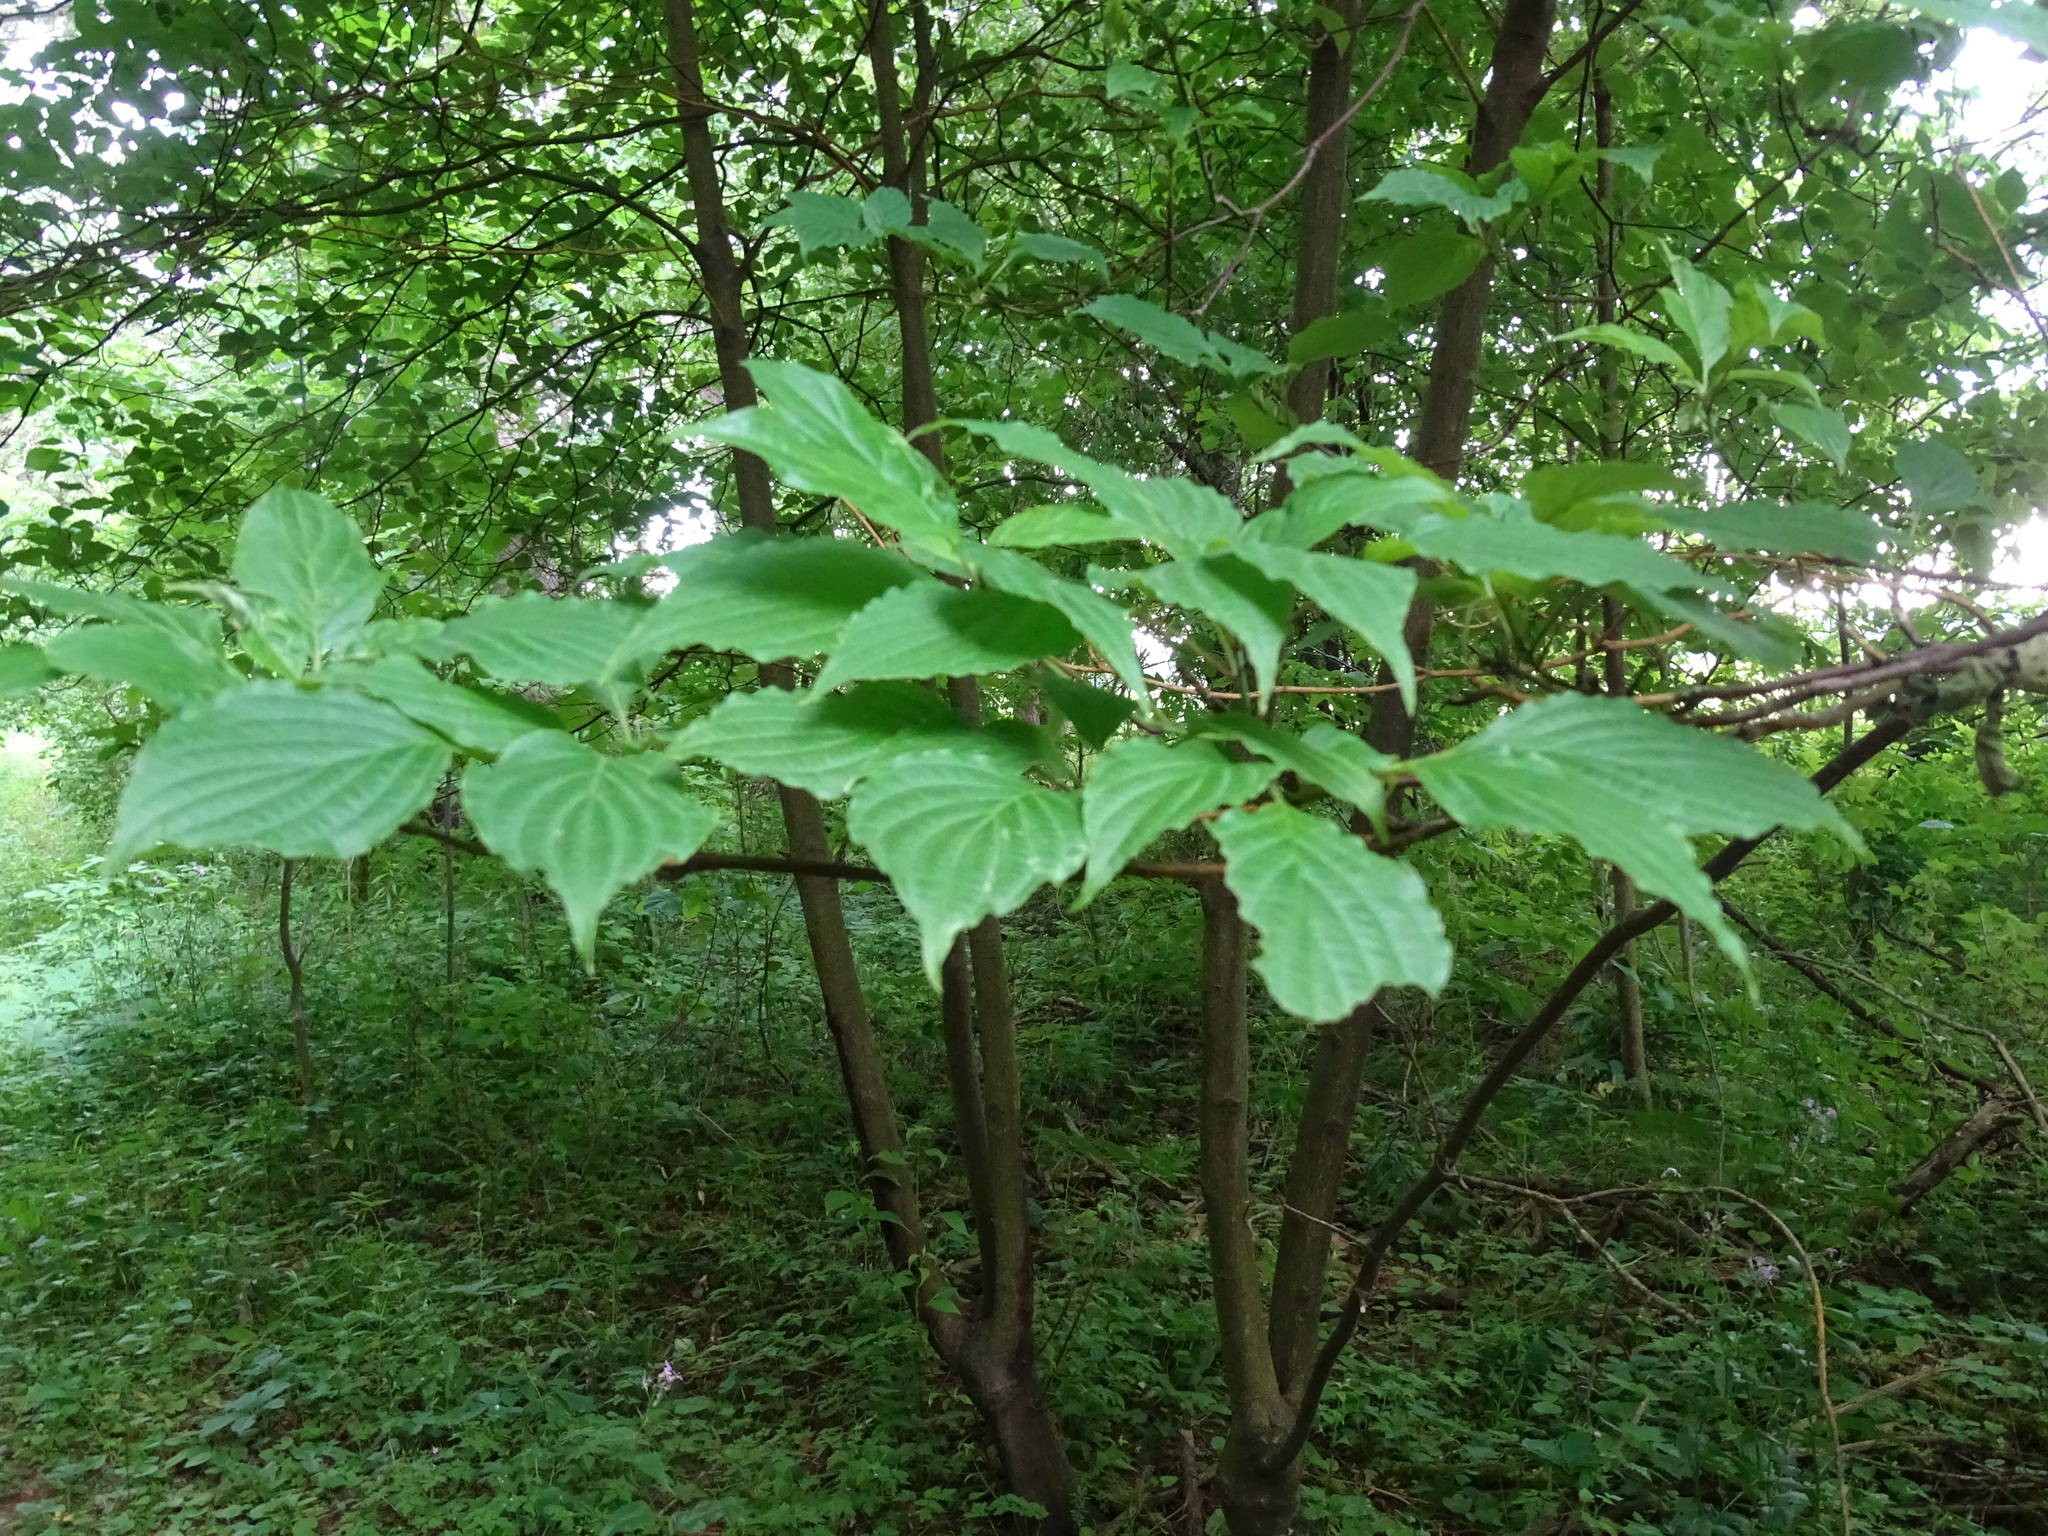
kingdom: Plantae
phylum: Tracheophyta
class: Magnoliopsida
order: Cornales
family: Cornaceae
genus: Cornus
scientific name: Cornus alternifolia
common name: Pagoda dogwood
